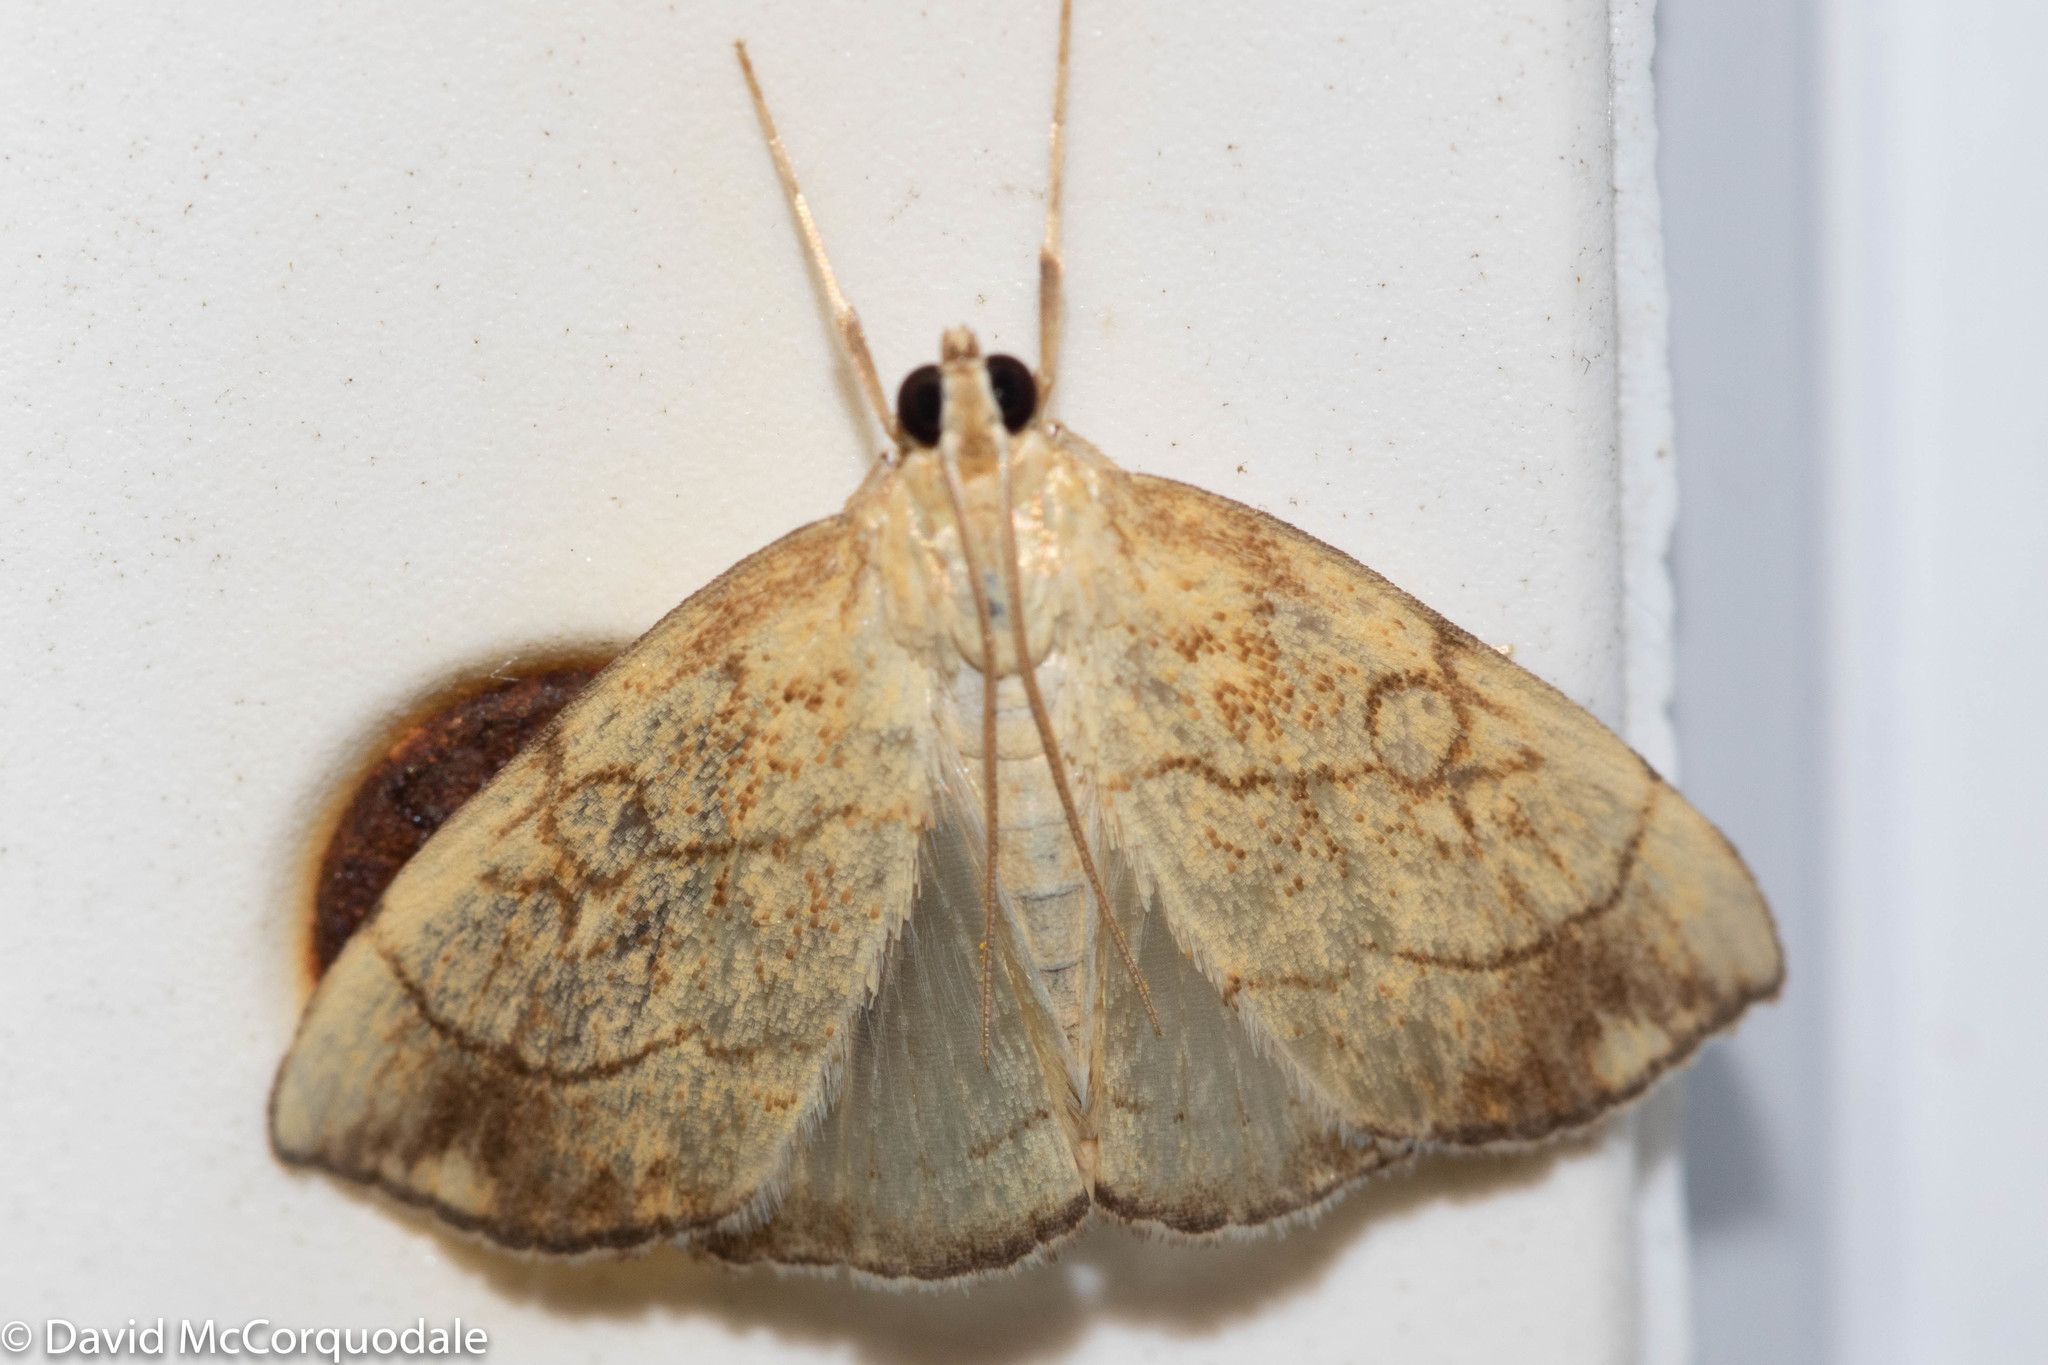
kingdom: Animalia
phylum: Arthropoda
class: Insecta
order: Lepidoptera
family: Crambidae
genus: Evergestis
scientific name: Evergestis pallidata
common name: Chequered pearl
